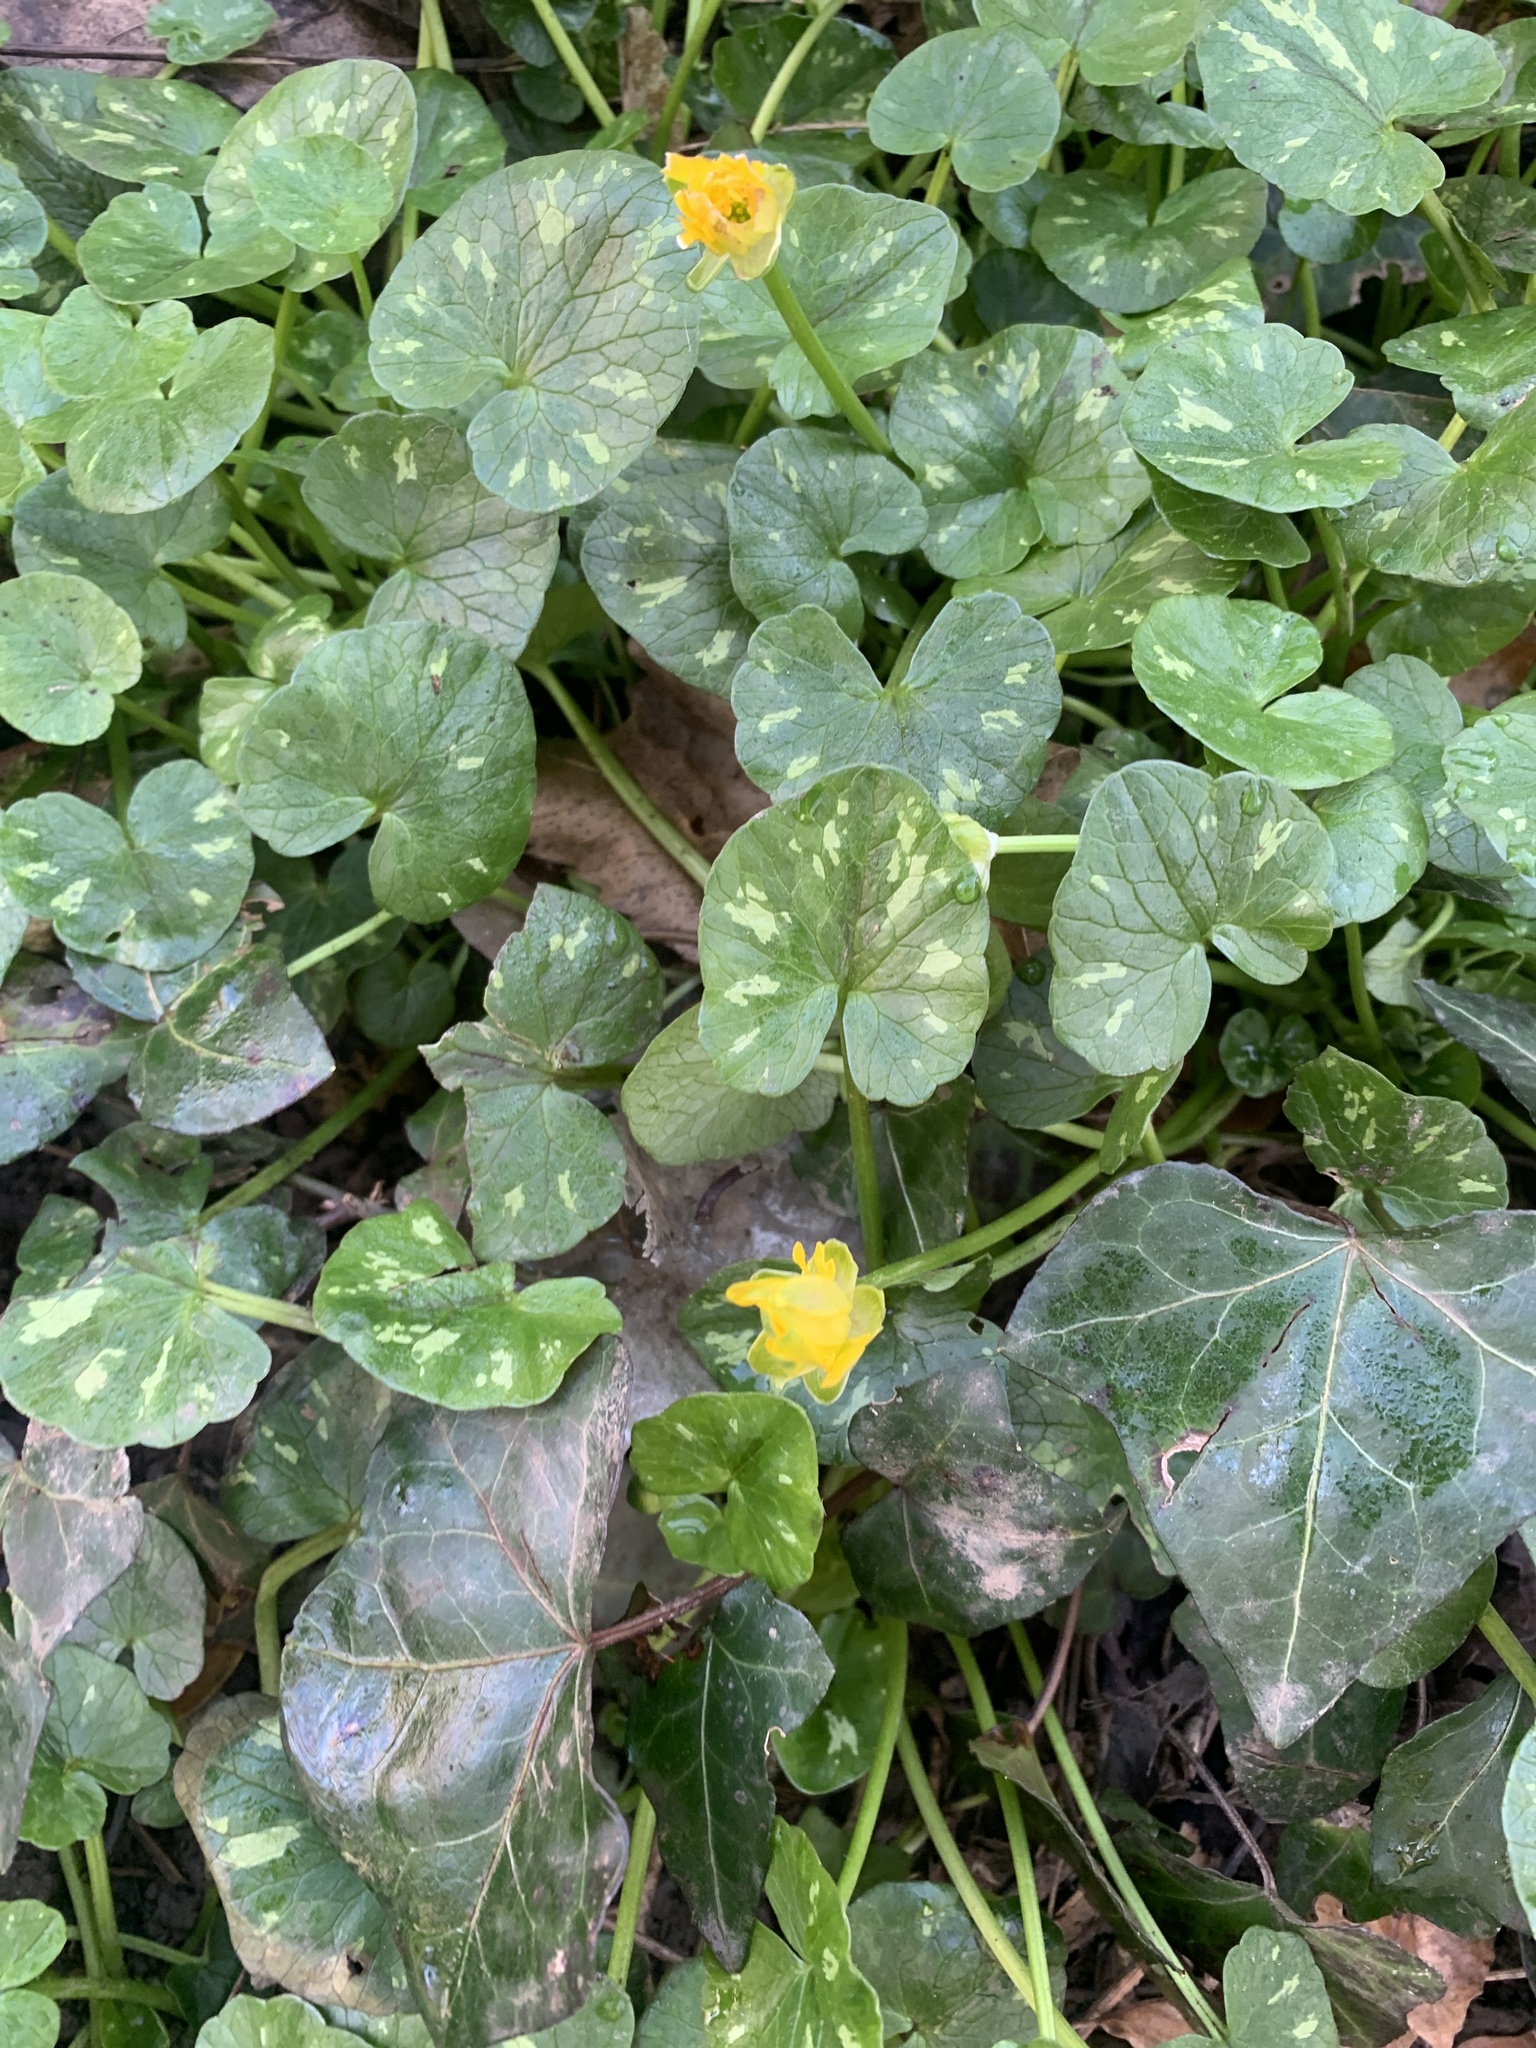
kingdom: Plantae
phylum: Tracheophyta
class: Magnoliopsida
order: Ranunculales
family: Ranunculaceae
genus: Ficaria
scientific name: Ficaria verna
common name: Lesser celandine
